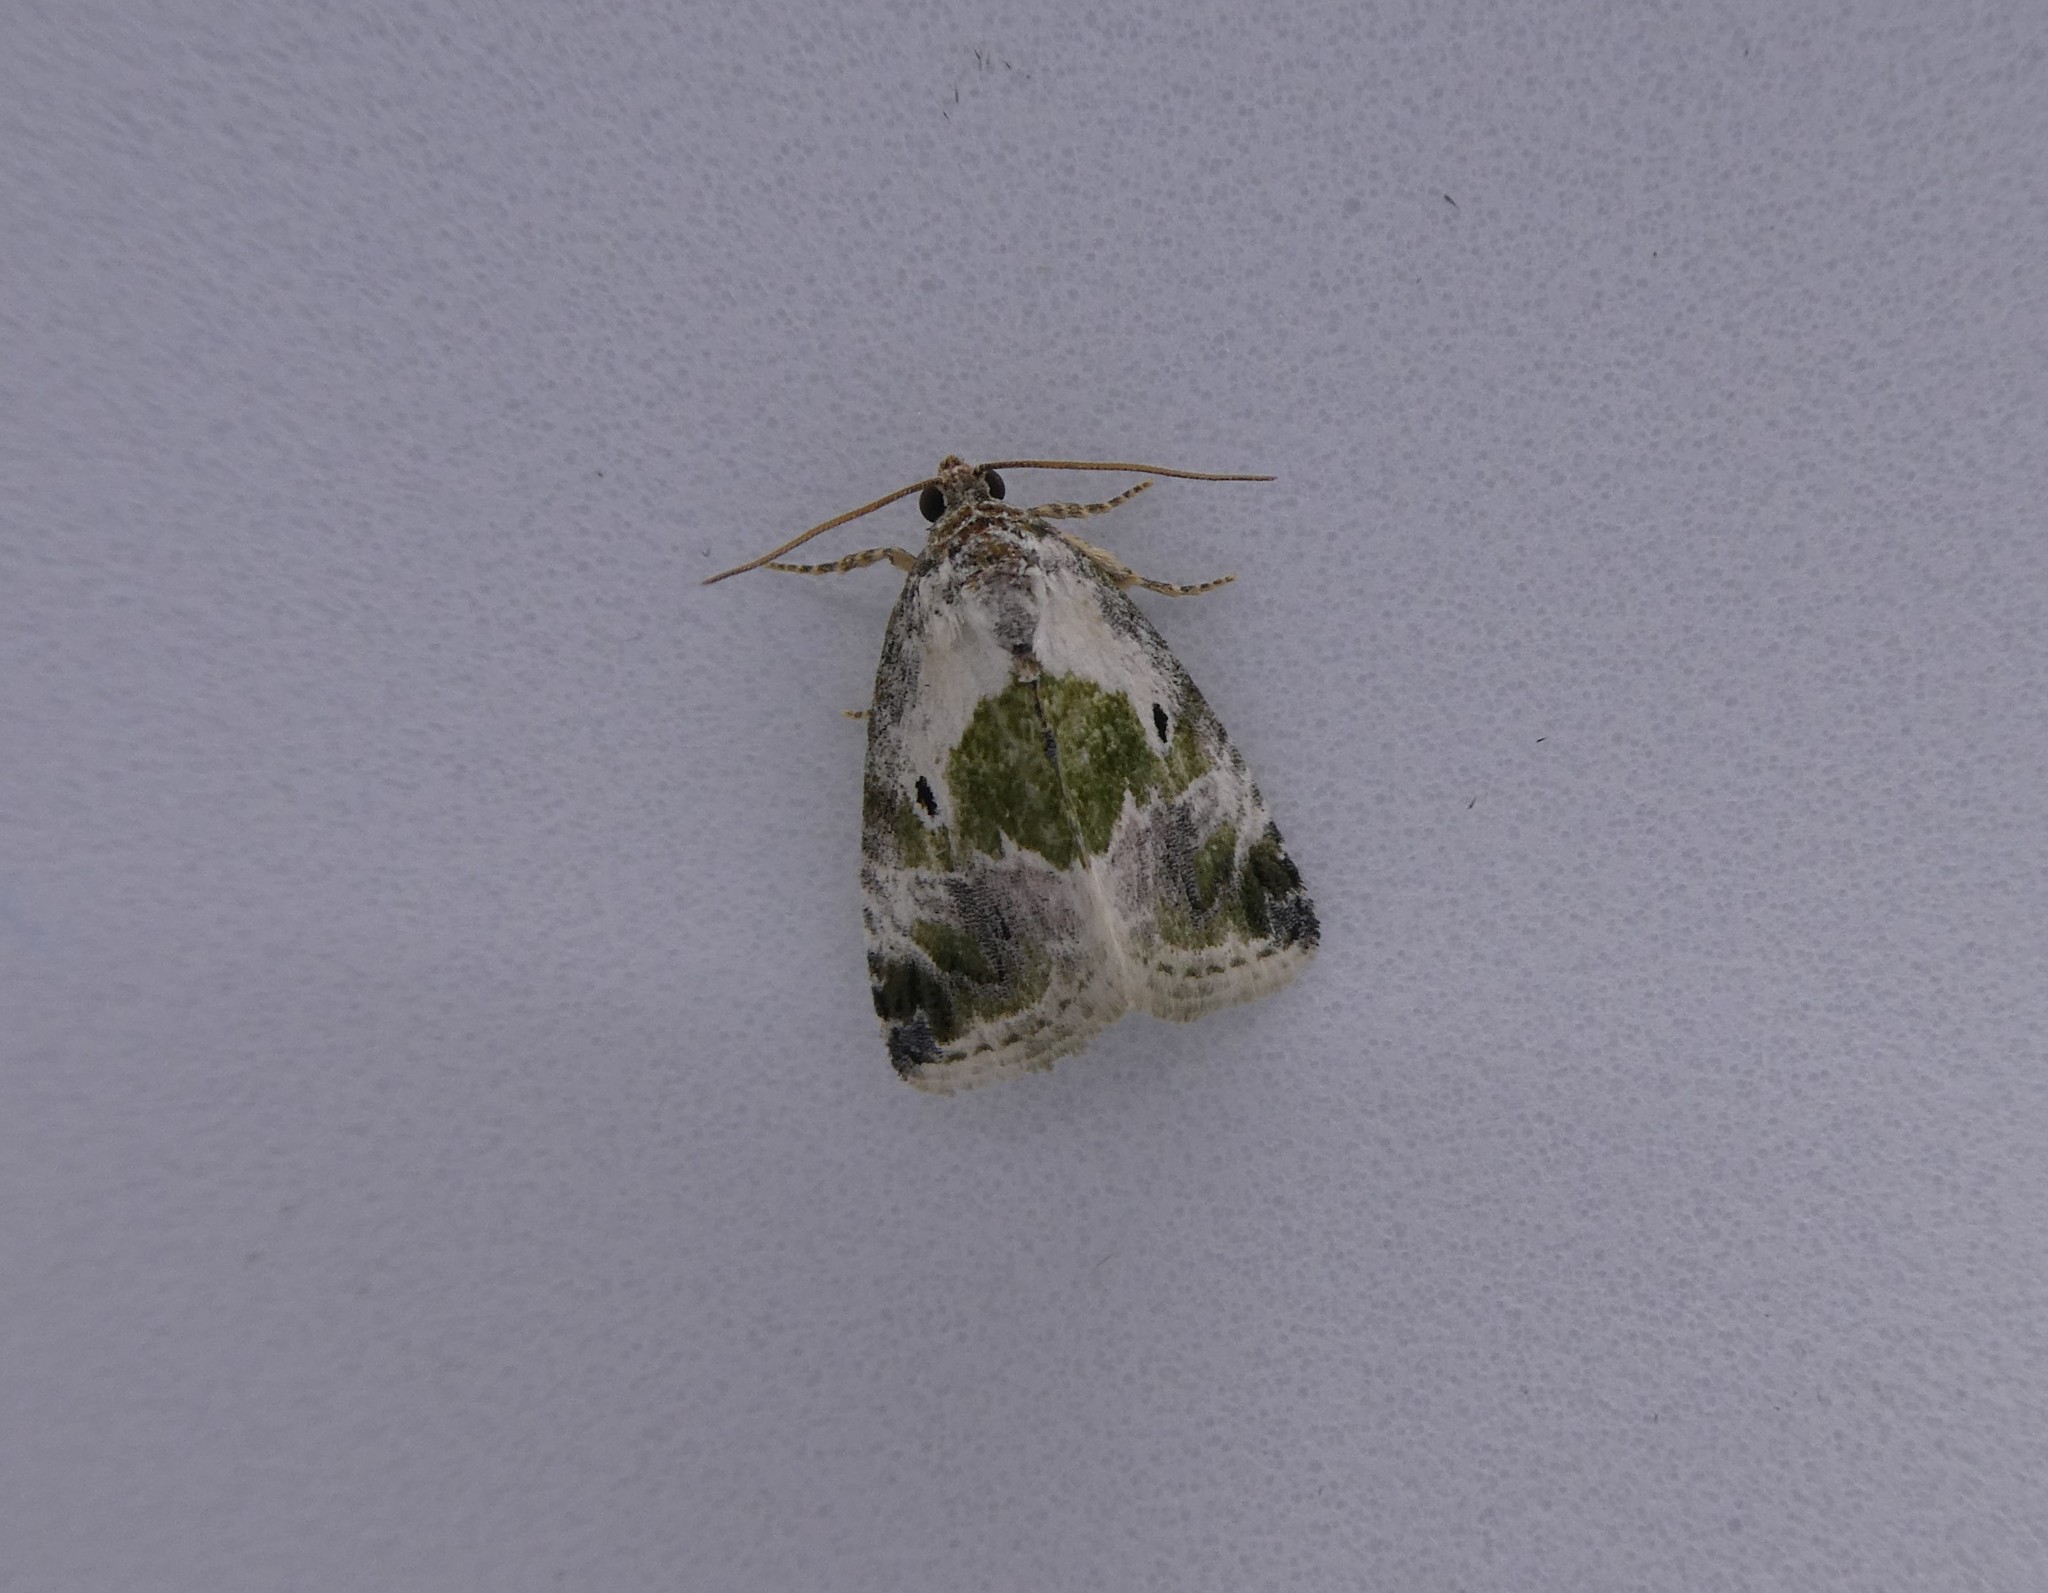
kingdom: Animalia
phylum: Arthropoda
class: Insecta
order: Lepidoptera
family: Noctuidae
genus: Maliattha
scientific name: Maliattha synochitis
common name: Black-dotted glyph
